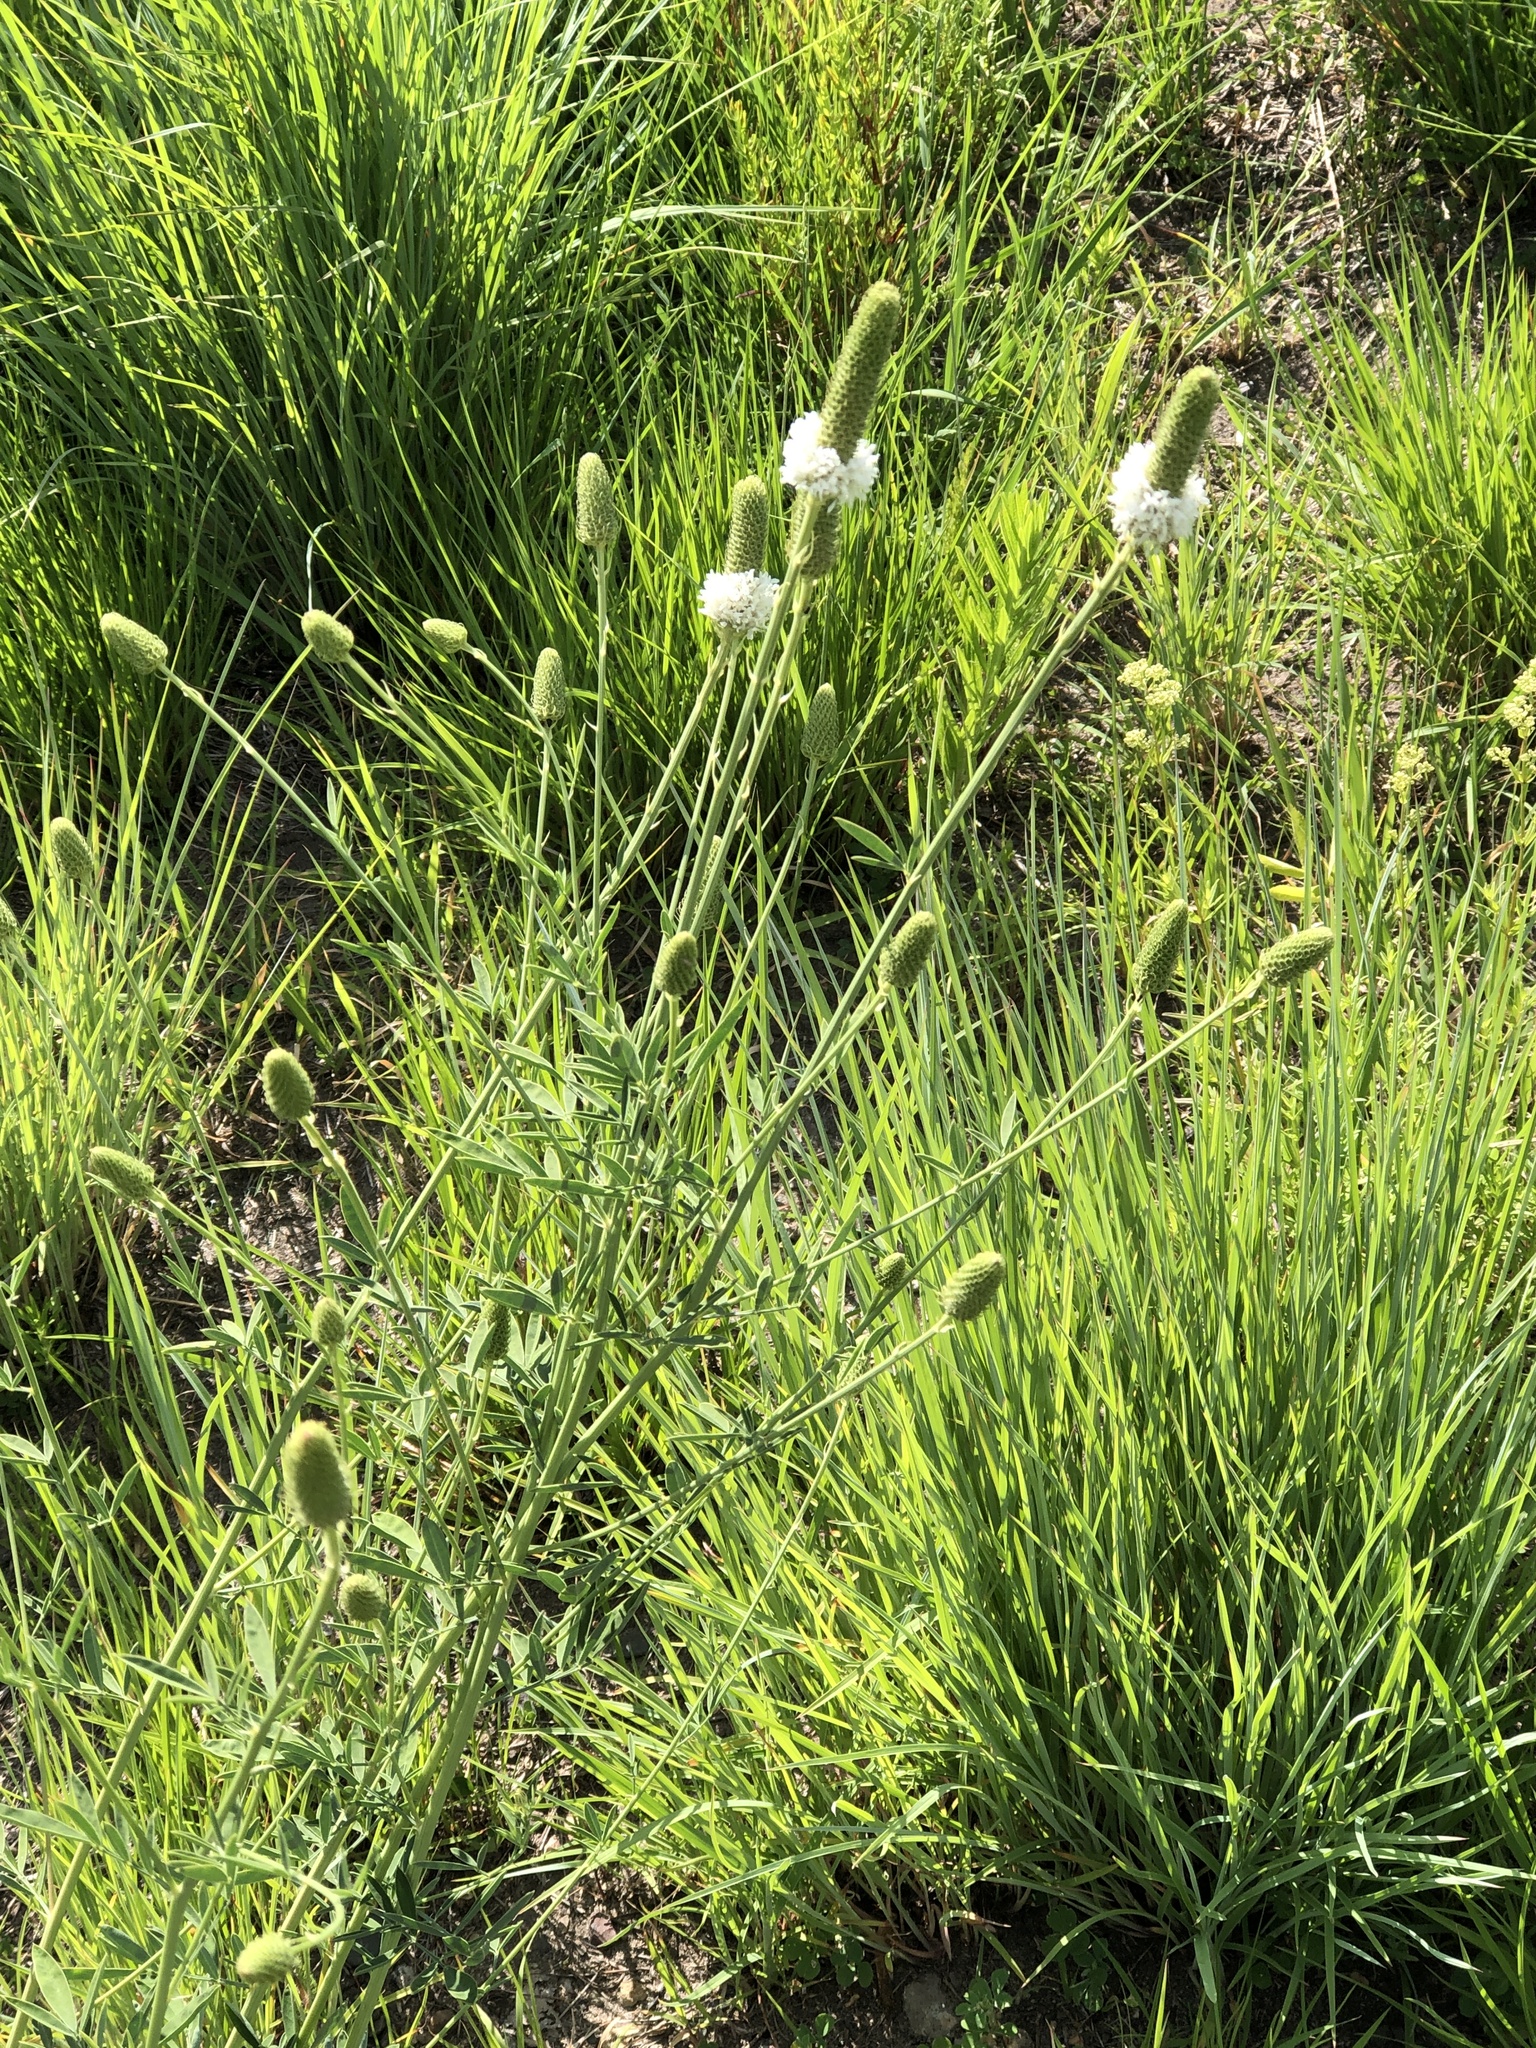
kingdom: Plantae
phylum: Tracheophyta
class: Magnoliopsida
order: Fabales
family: Fabaceae
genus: Dalea
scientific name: Dalea candida
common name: White prairie-clover
